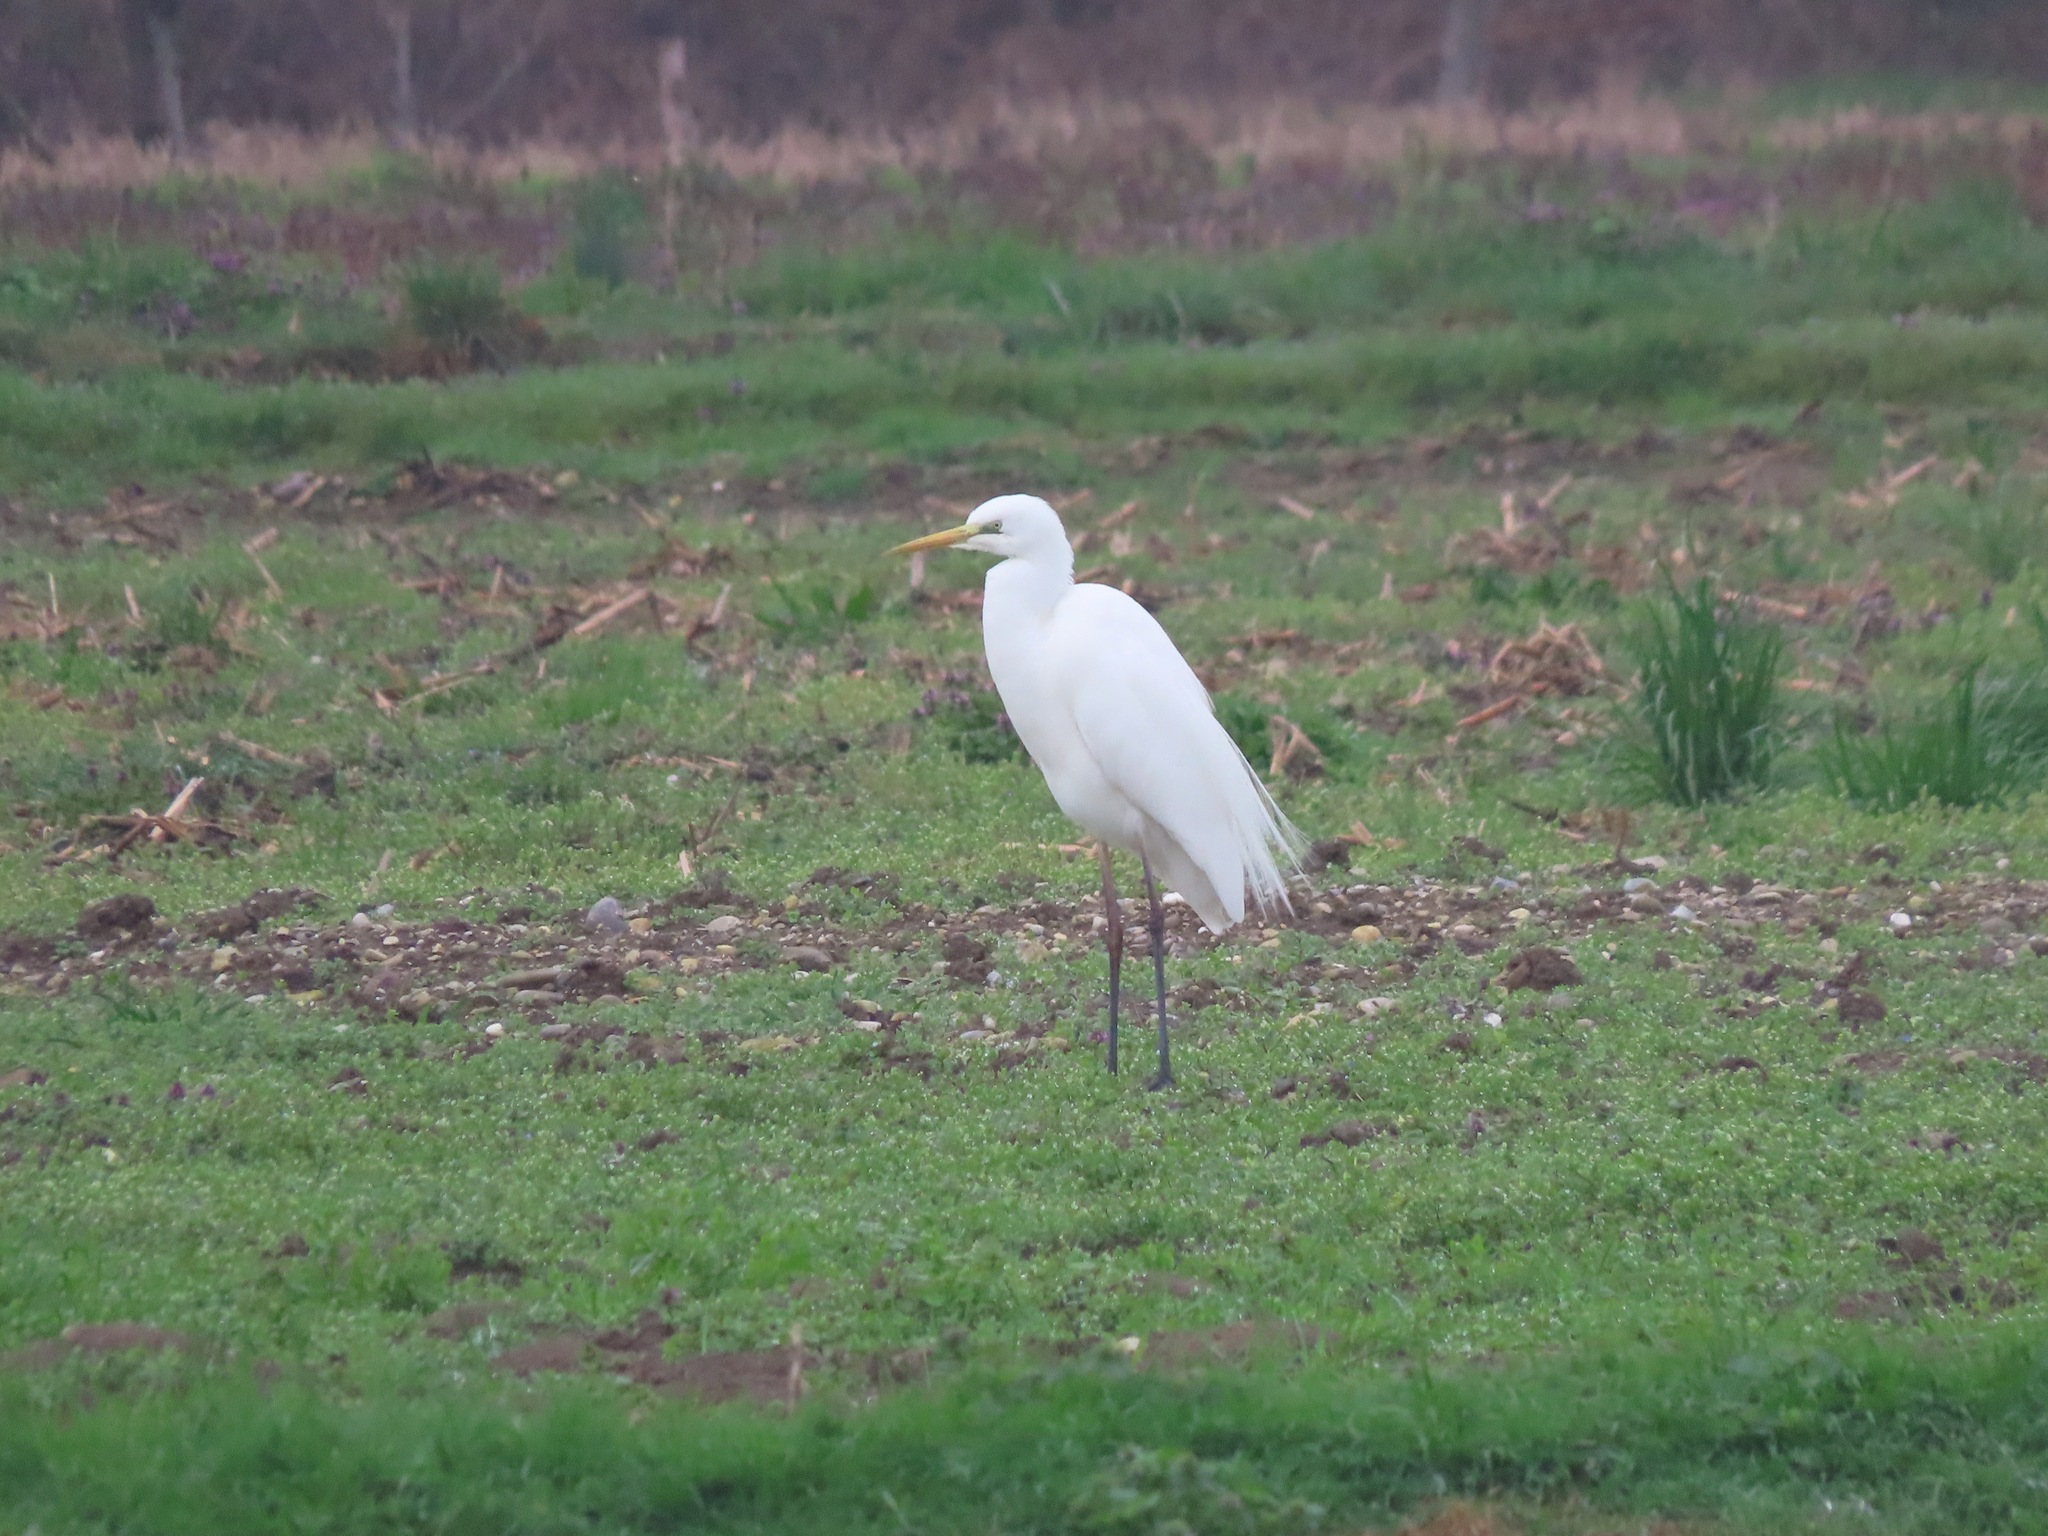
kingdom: Animalia
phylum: Chordata
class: Aves
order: Pelecaniformes
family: Ardeidae
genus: Ardea
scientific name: Ardea alba
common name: Great egret
